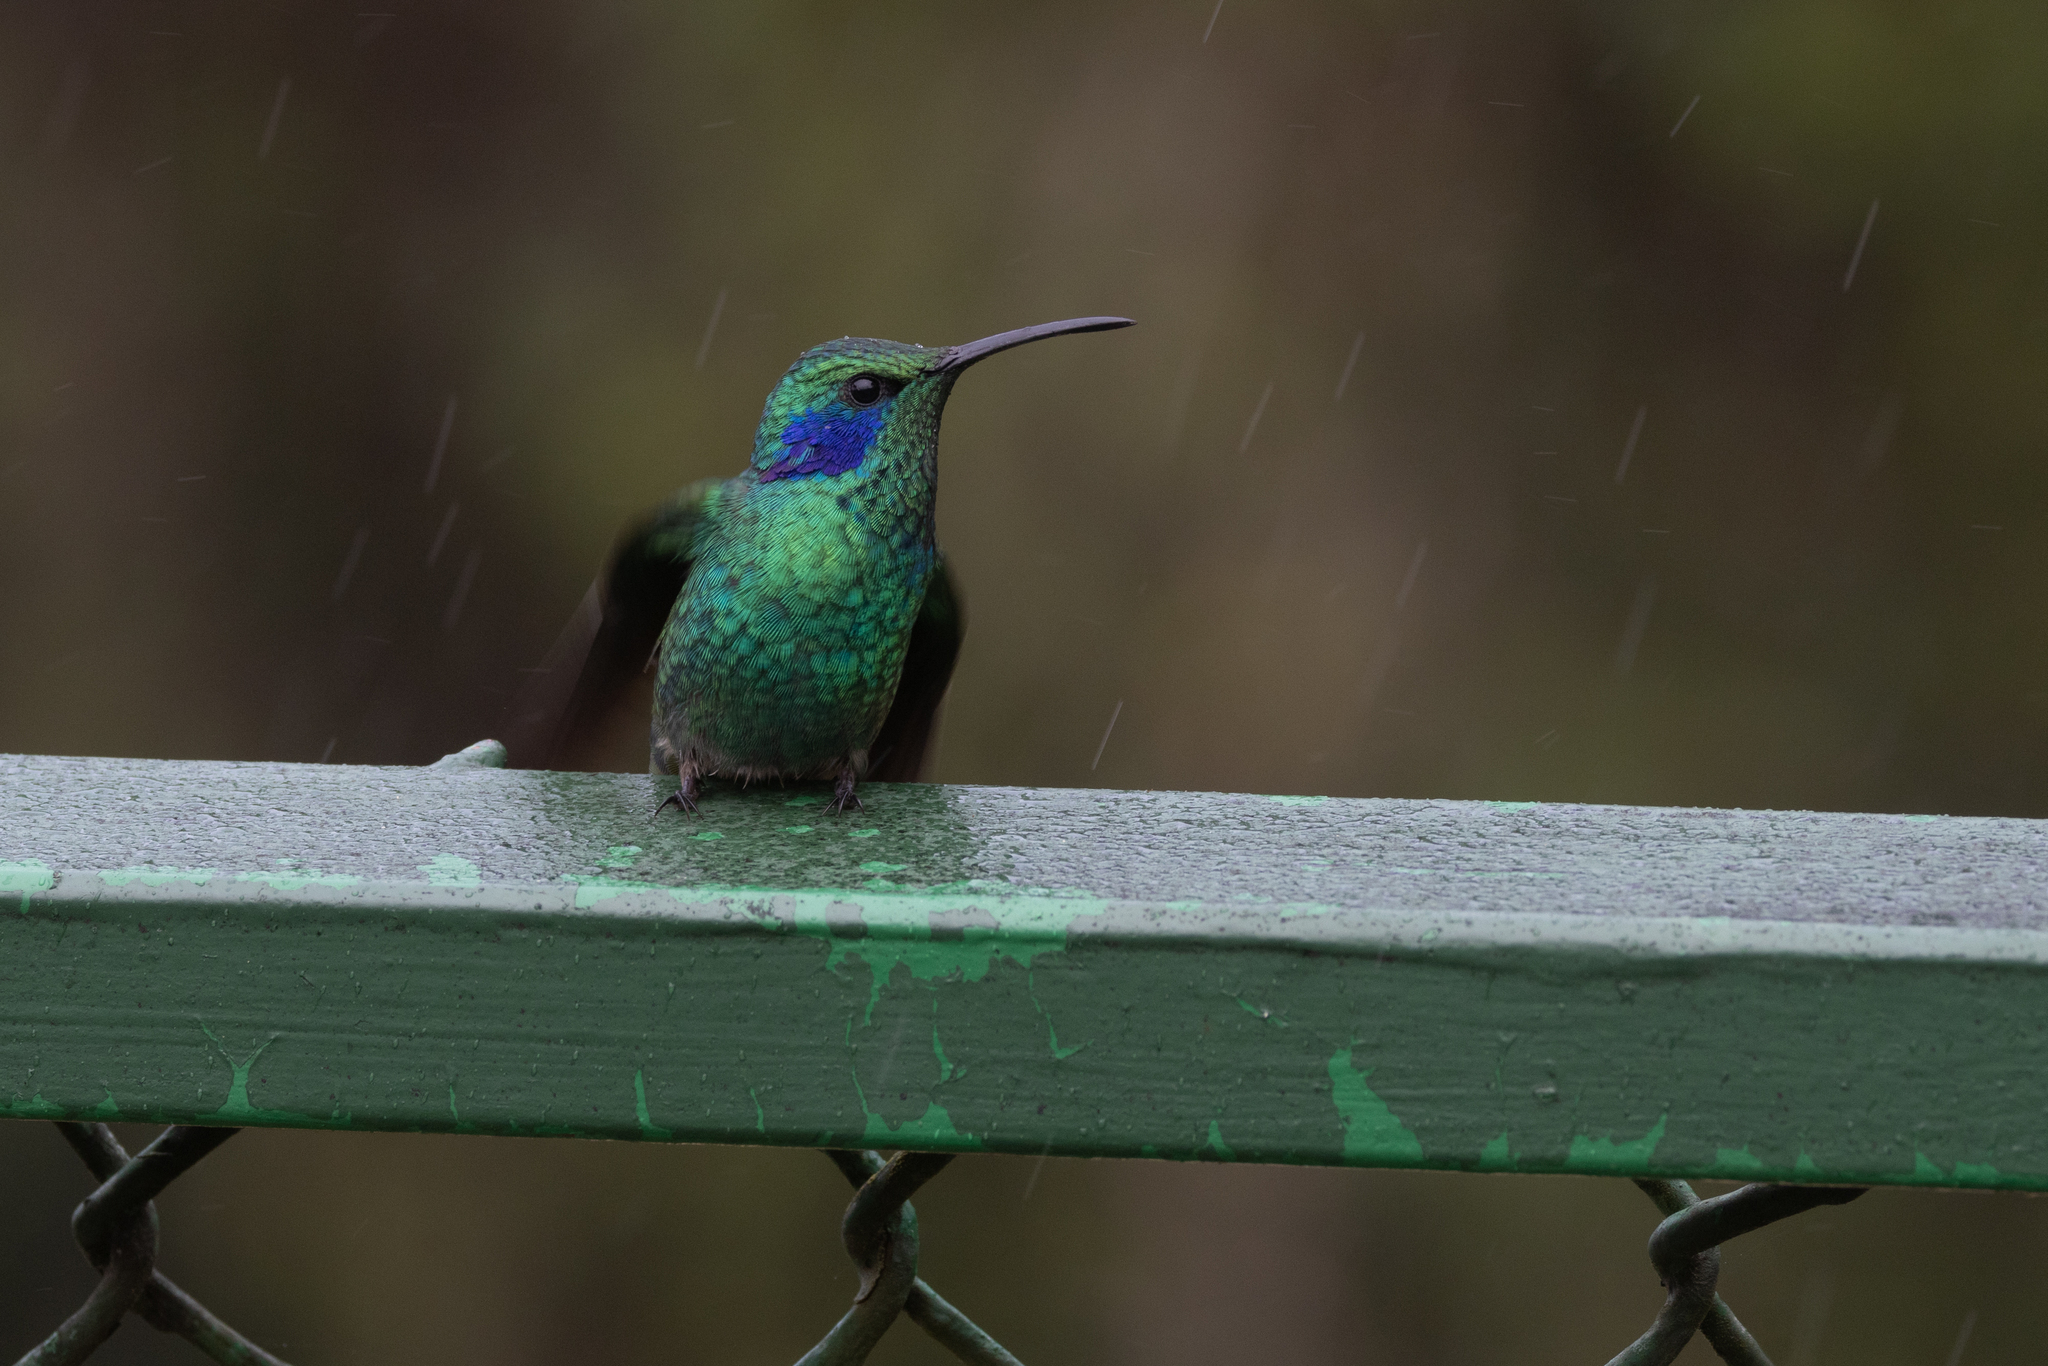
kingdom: Animalia
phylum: Chordata
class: Aves
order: Apodiformes
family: Trochilidae
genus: Colibri
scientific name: Colibri cyanotus
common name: Lesser violetear
